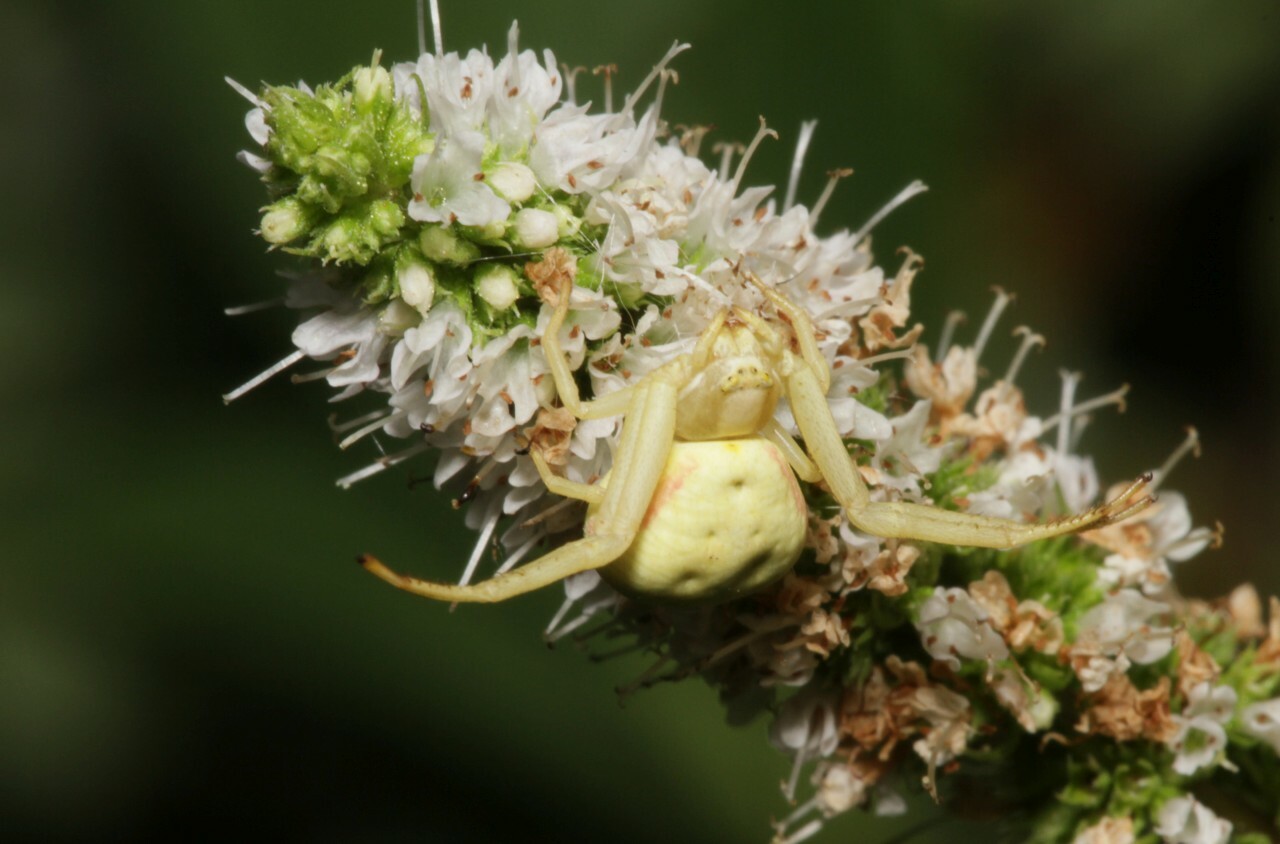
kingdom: Animalia
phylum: Arthropoda
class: Arachnida
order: Araneae
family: Thomisidae
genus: Misumena
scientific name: Misumena vatia
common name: Goldenrod crab spider
